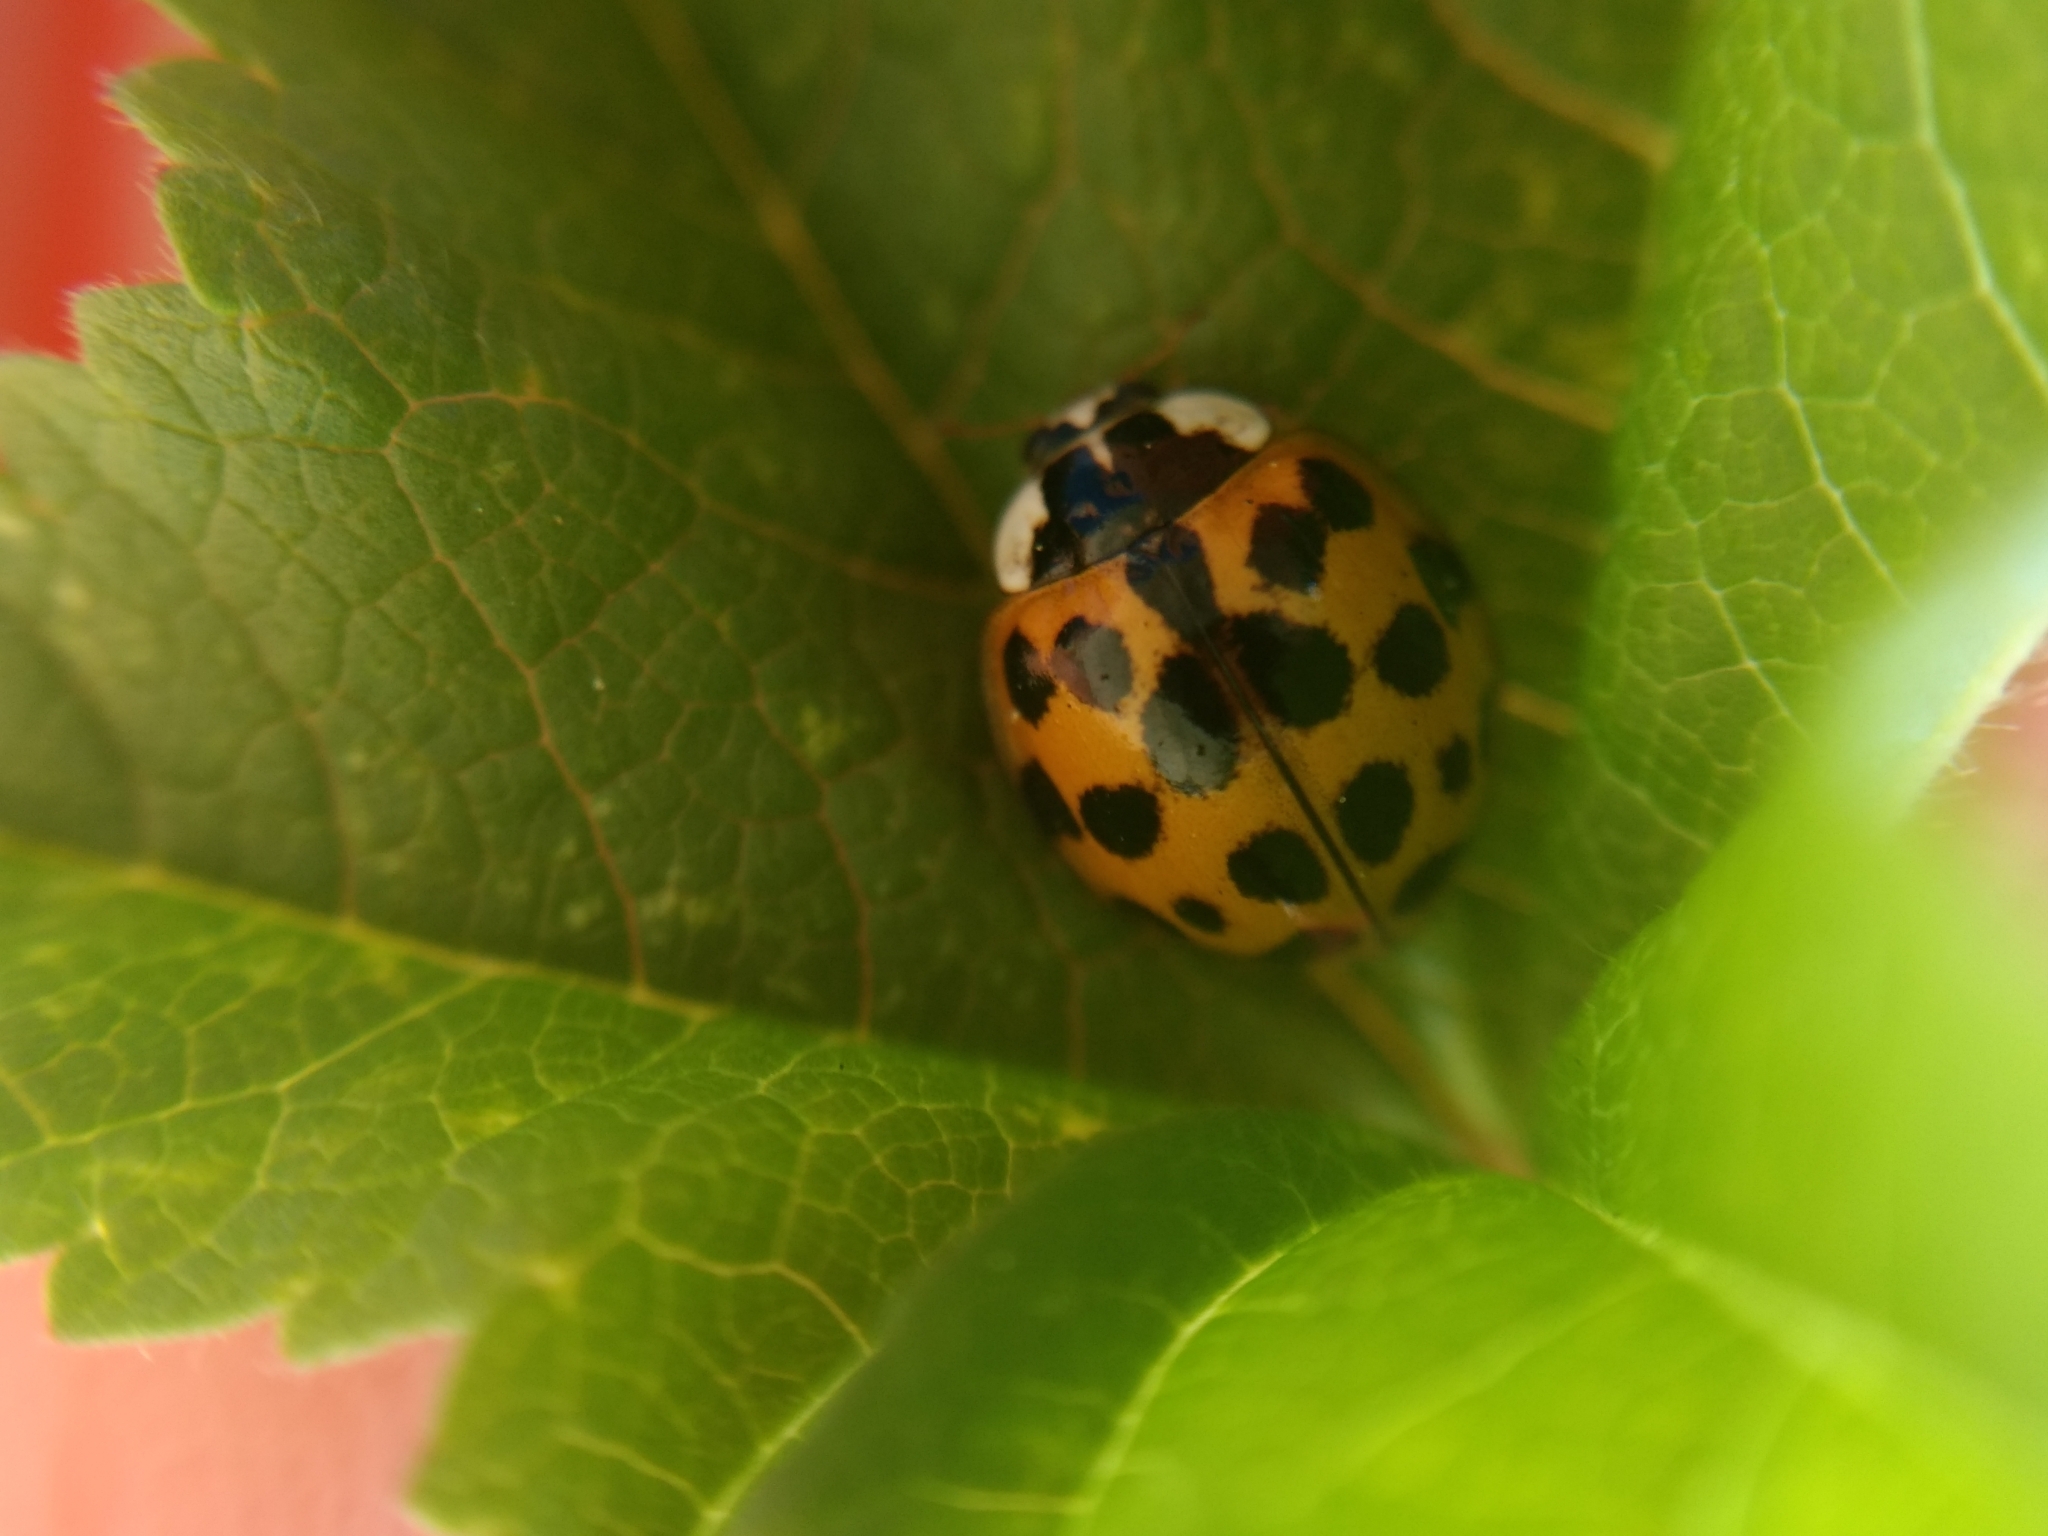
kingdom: Animalia
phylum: Arthropoda
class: Insecta
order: Coleoptera
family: Coccinellidae
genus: Harmonia
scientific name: Harmonia axyridis
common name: Harlequin ladybird
